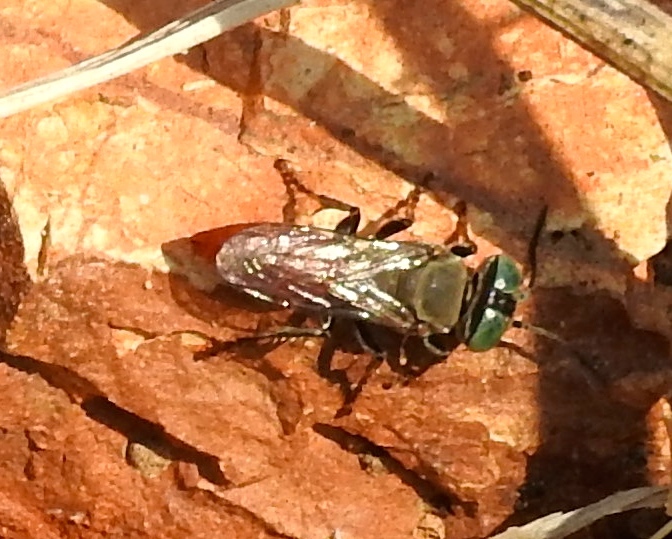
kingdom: Animalia
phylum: Arthropoda
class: Insecta
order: Hymenoptera
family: Crabronidae
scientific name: Crabronidae
